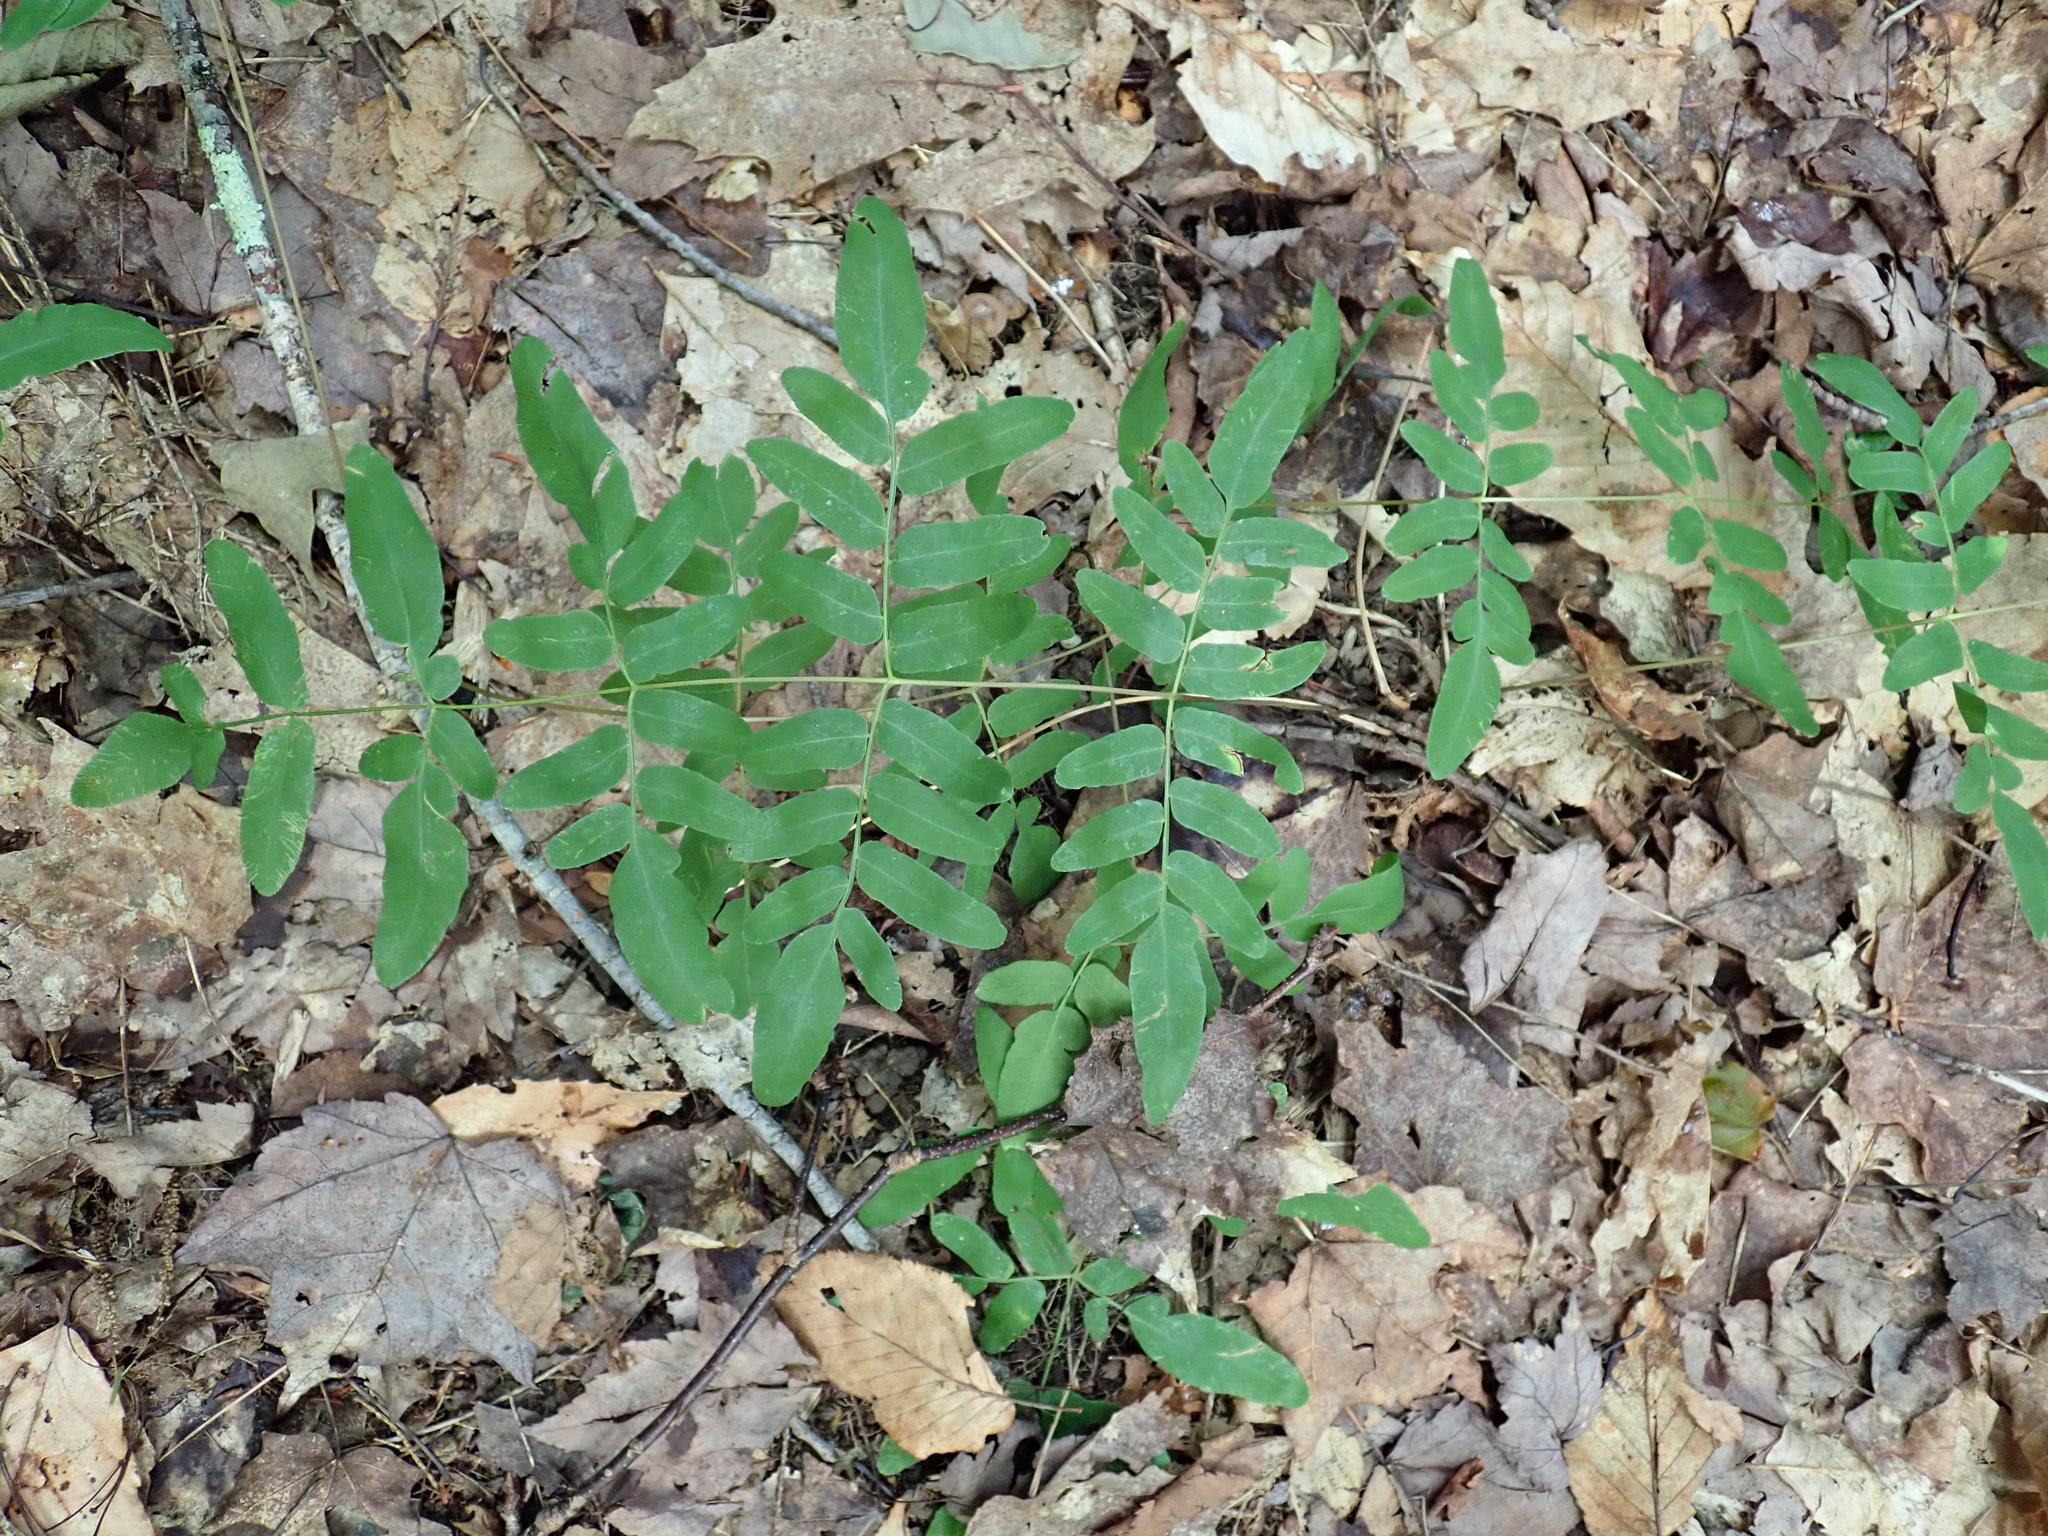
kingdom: Plantae
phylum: Tracheophyta
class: Polypodiopsida
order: Osmundales
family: Osmundaceae
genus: Osmunda
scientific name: Osmunda spectabilis
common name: American royal fern
